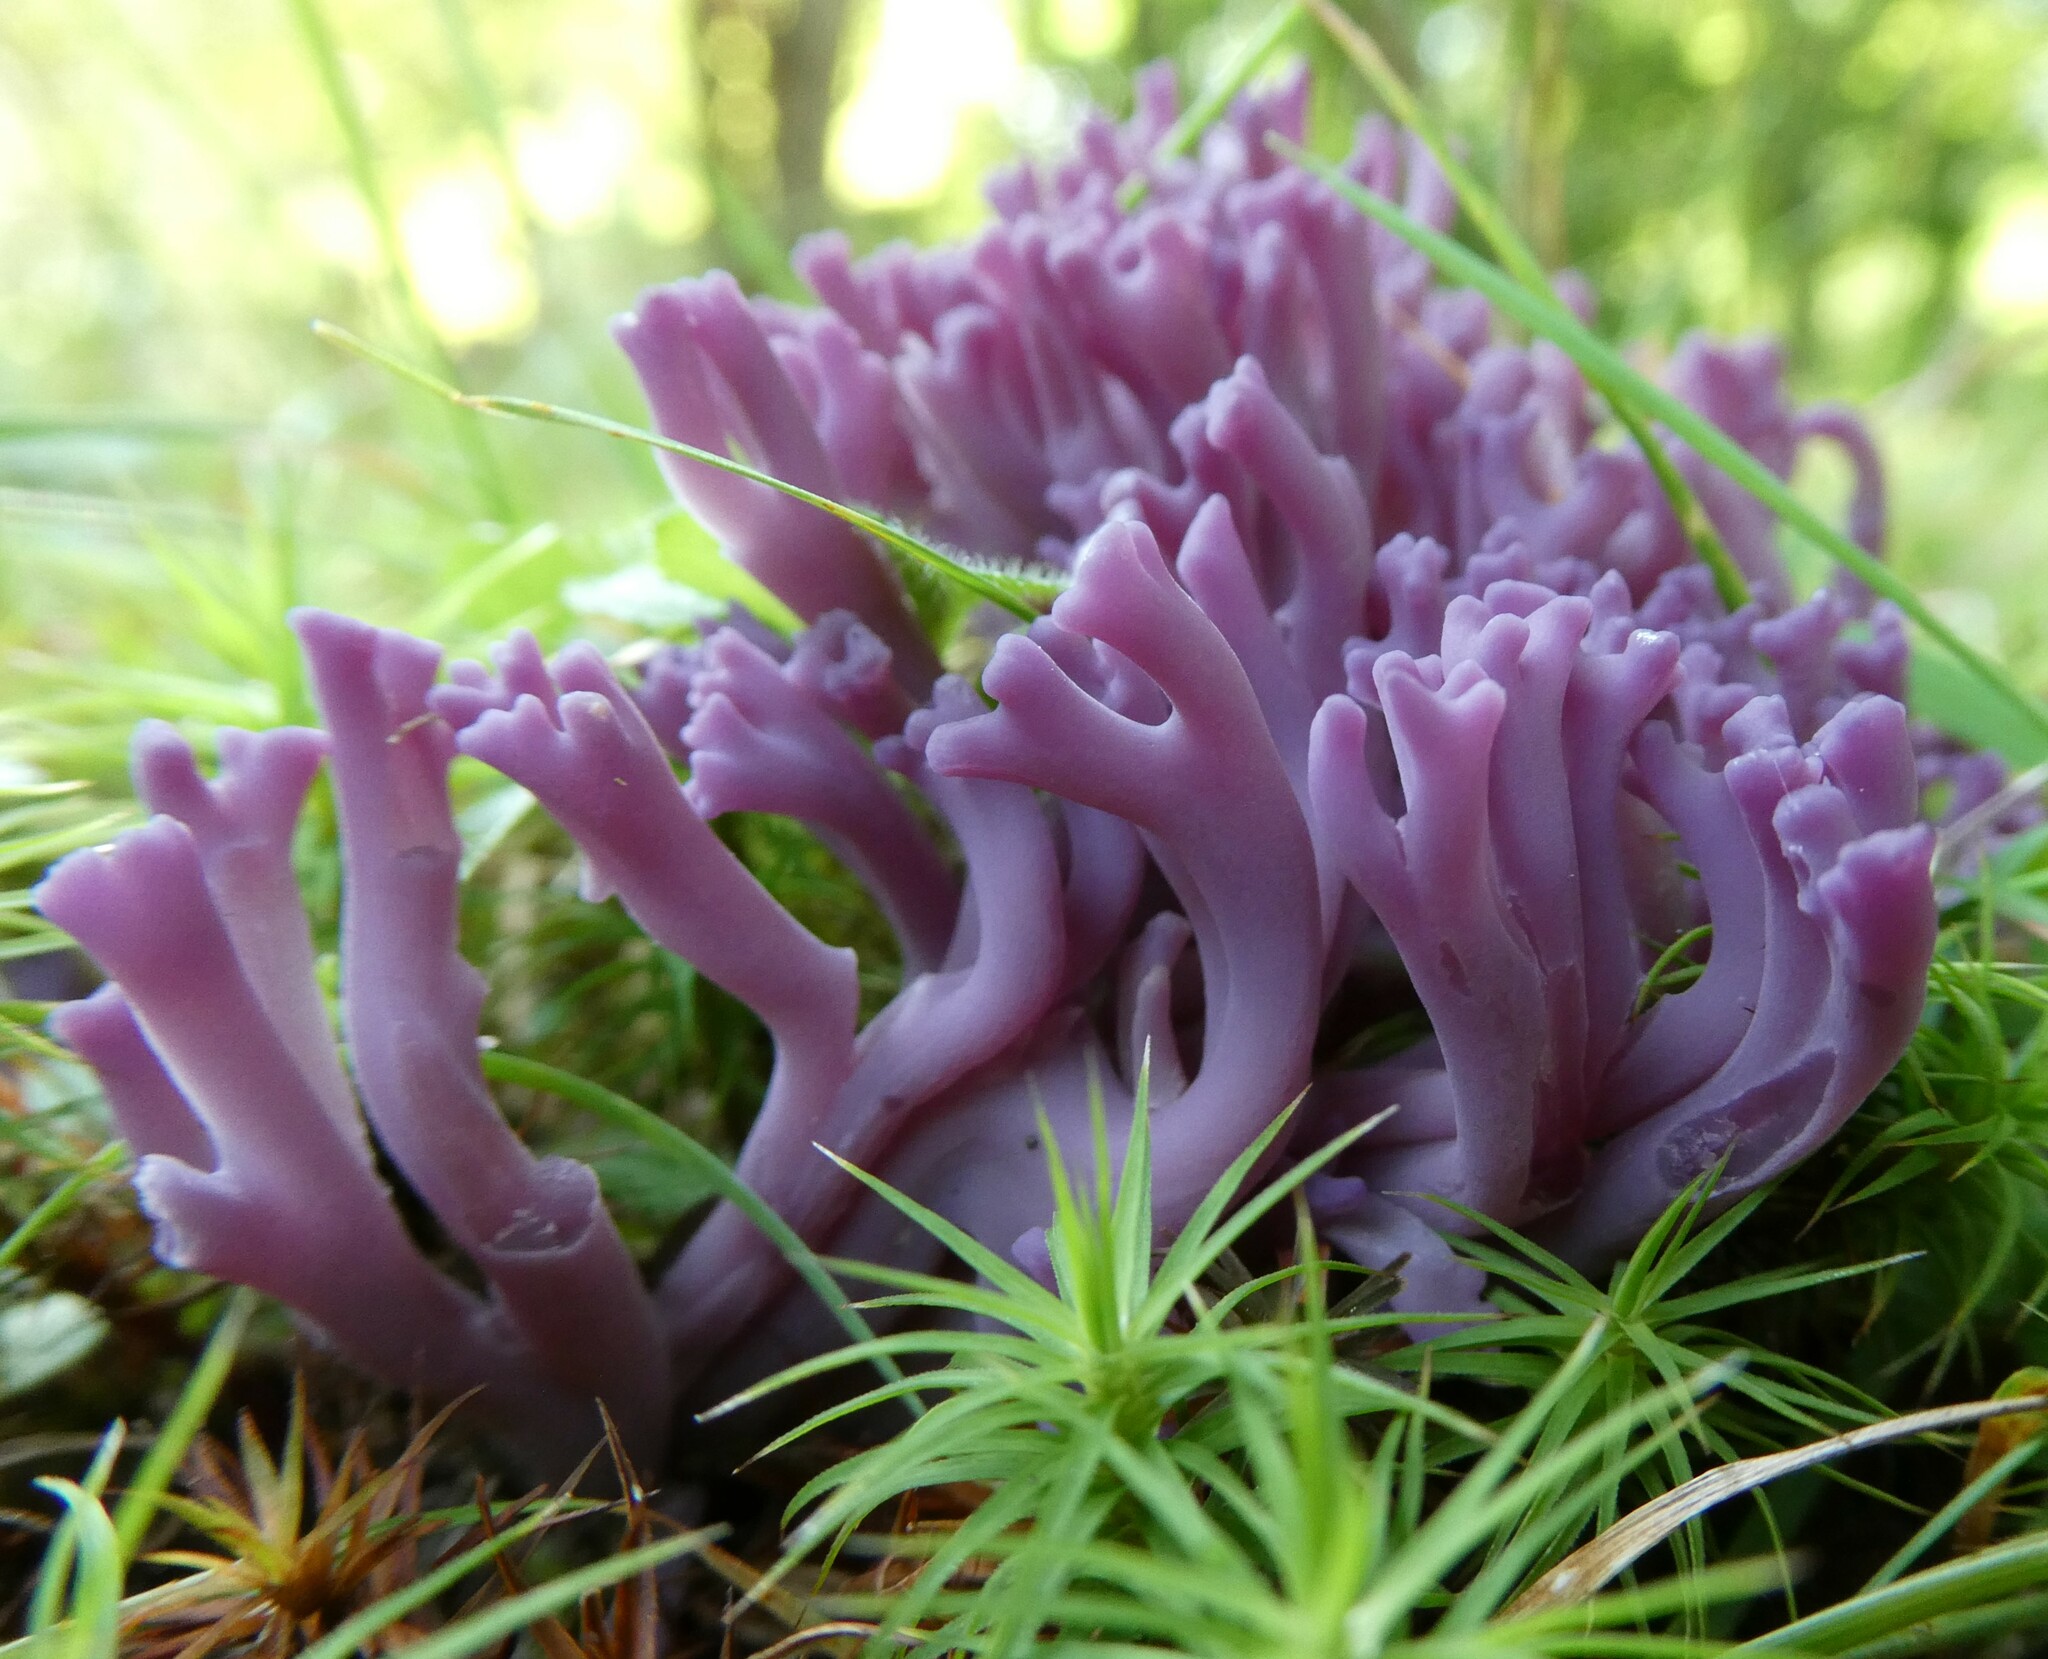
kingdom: Fungi
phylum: Basidiomycota
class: Agaricomycetes
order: Agaricales
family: Clavariaceae
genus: Clavaria
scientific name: Clavaria zollingeri
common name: Violet coral
